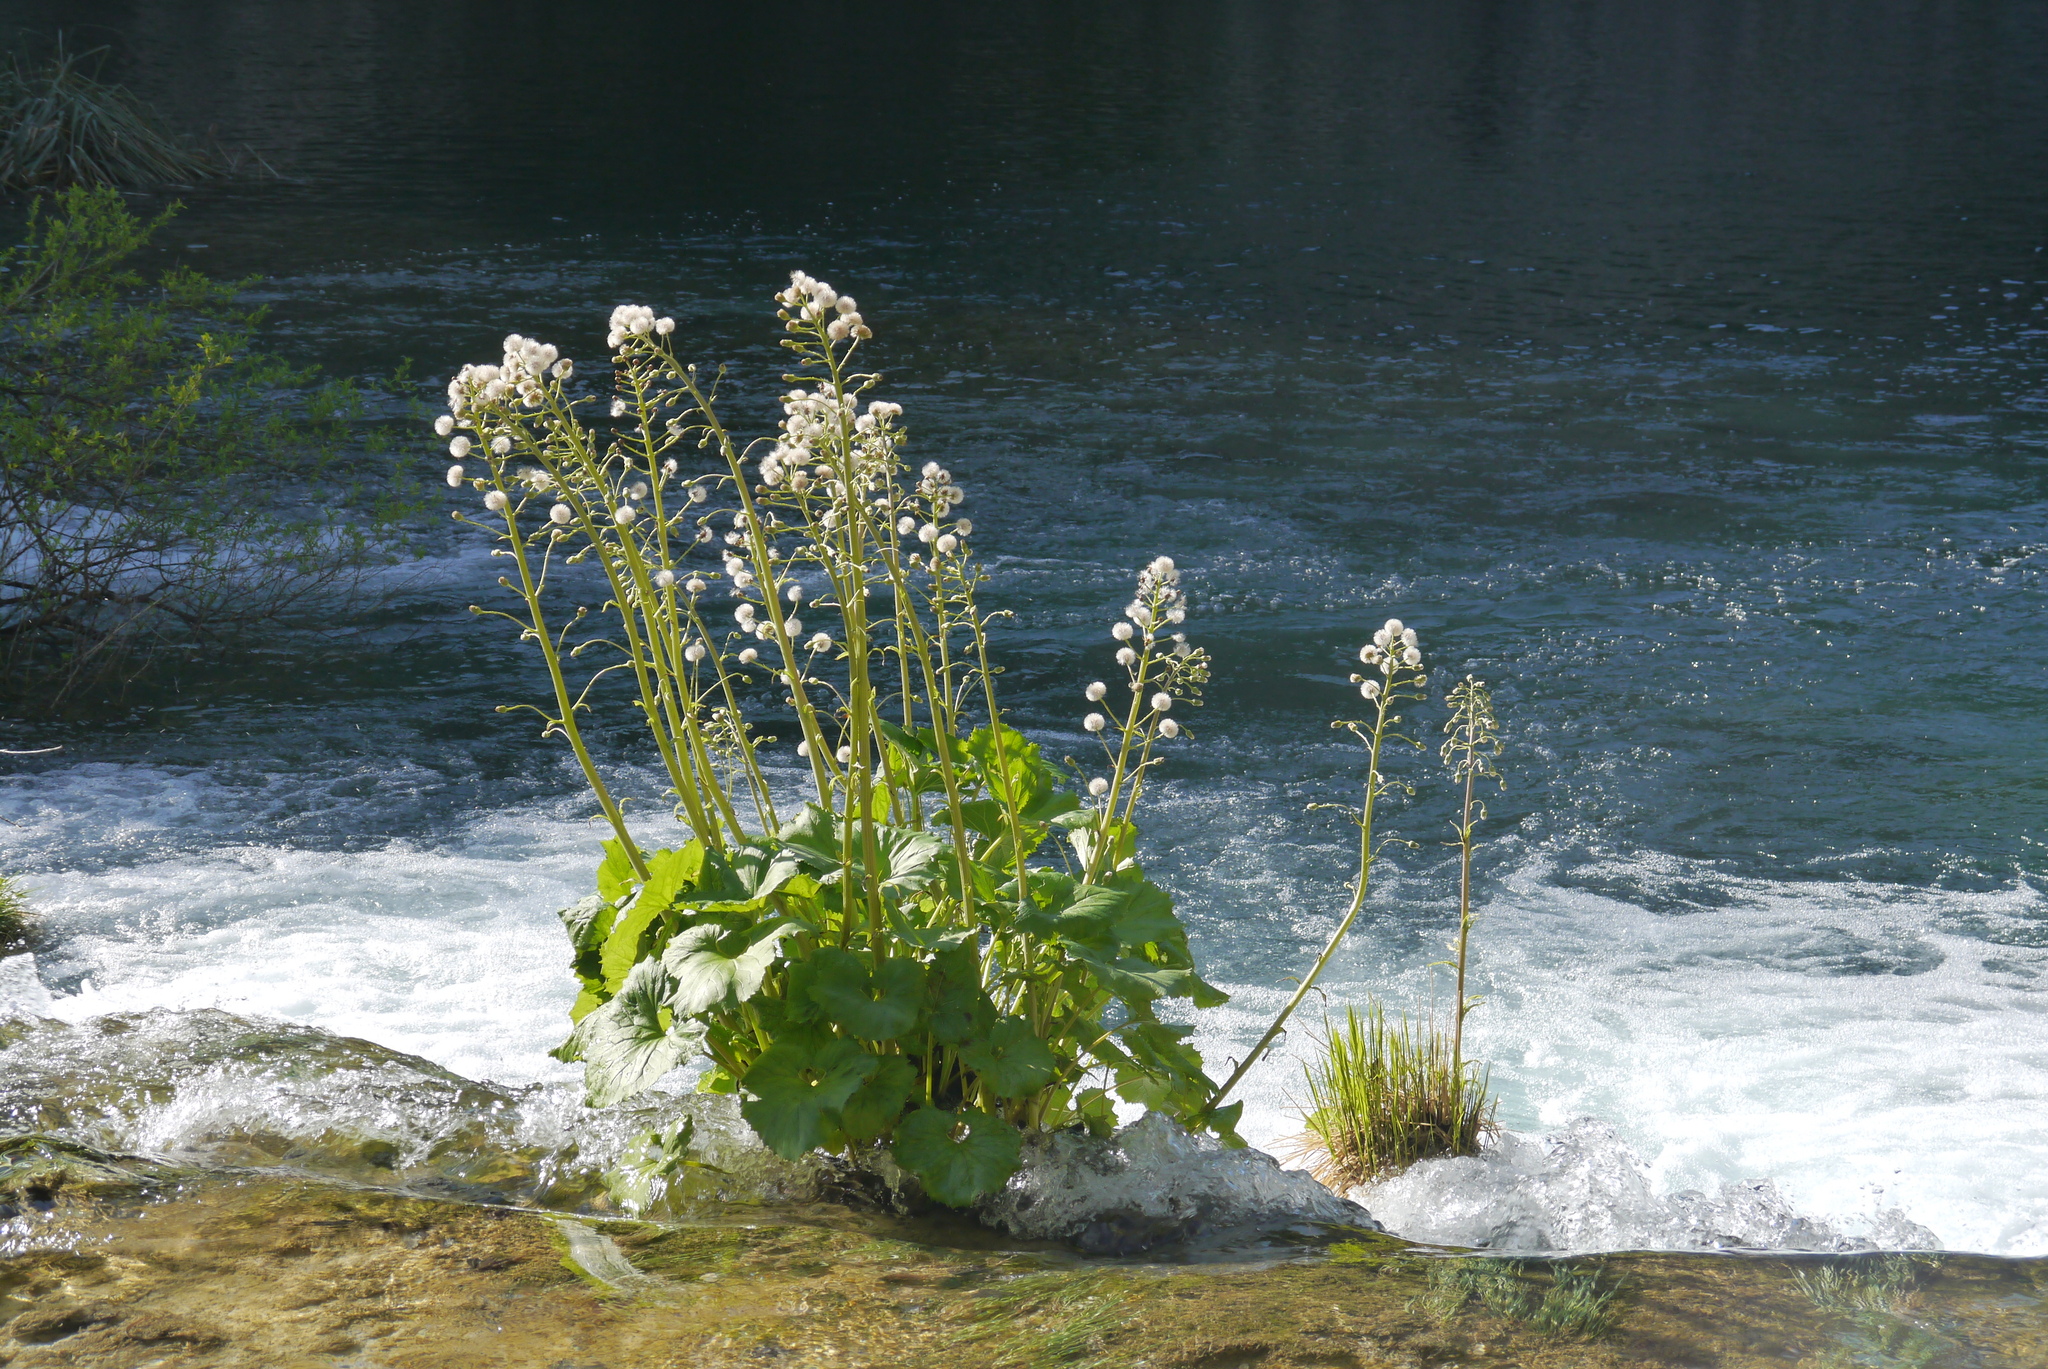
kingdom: Plantae
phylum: Tracheophyta
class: Magnoliopsida
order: Asterales
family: Asteraceae
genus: Petasites
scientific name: Petasites albus
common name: White butterbur
